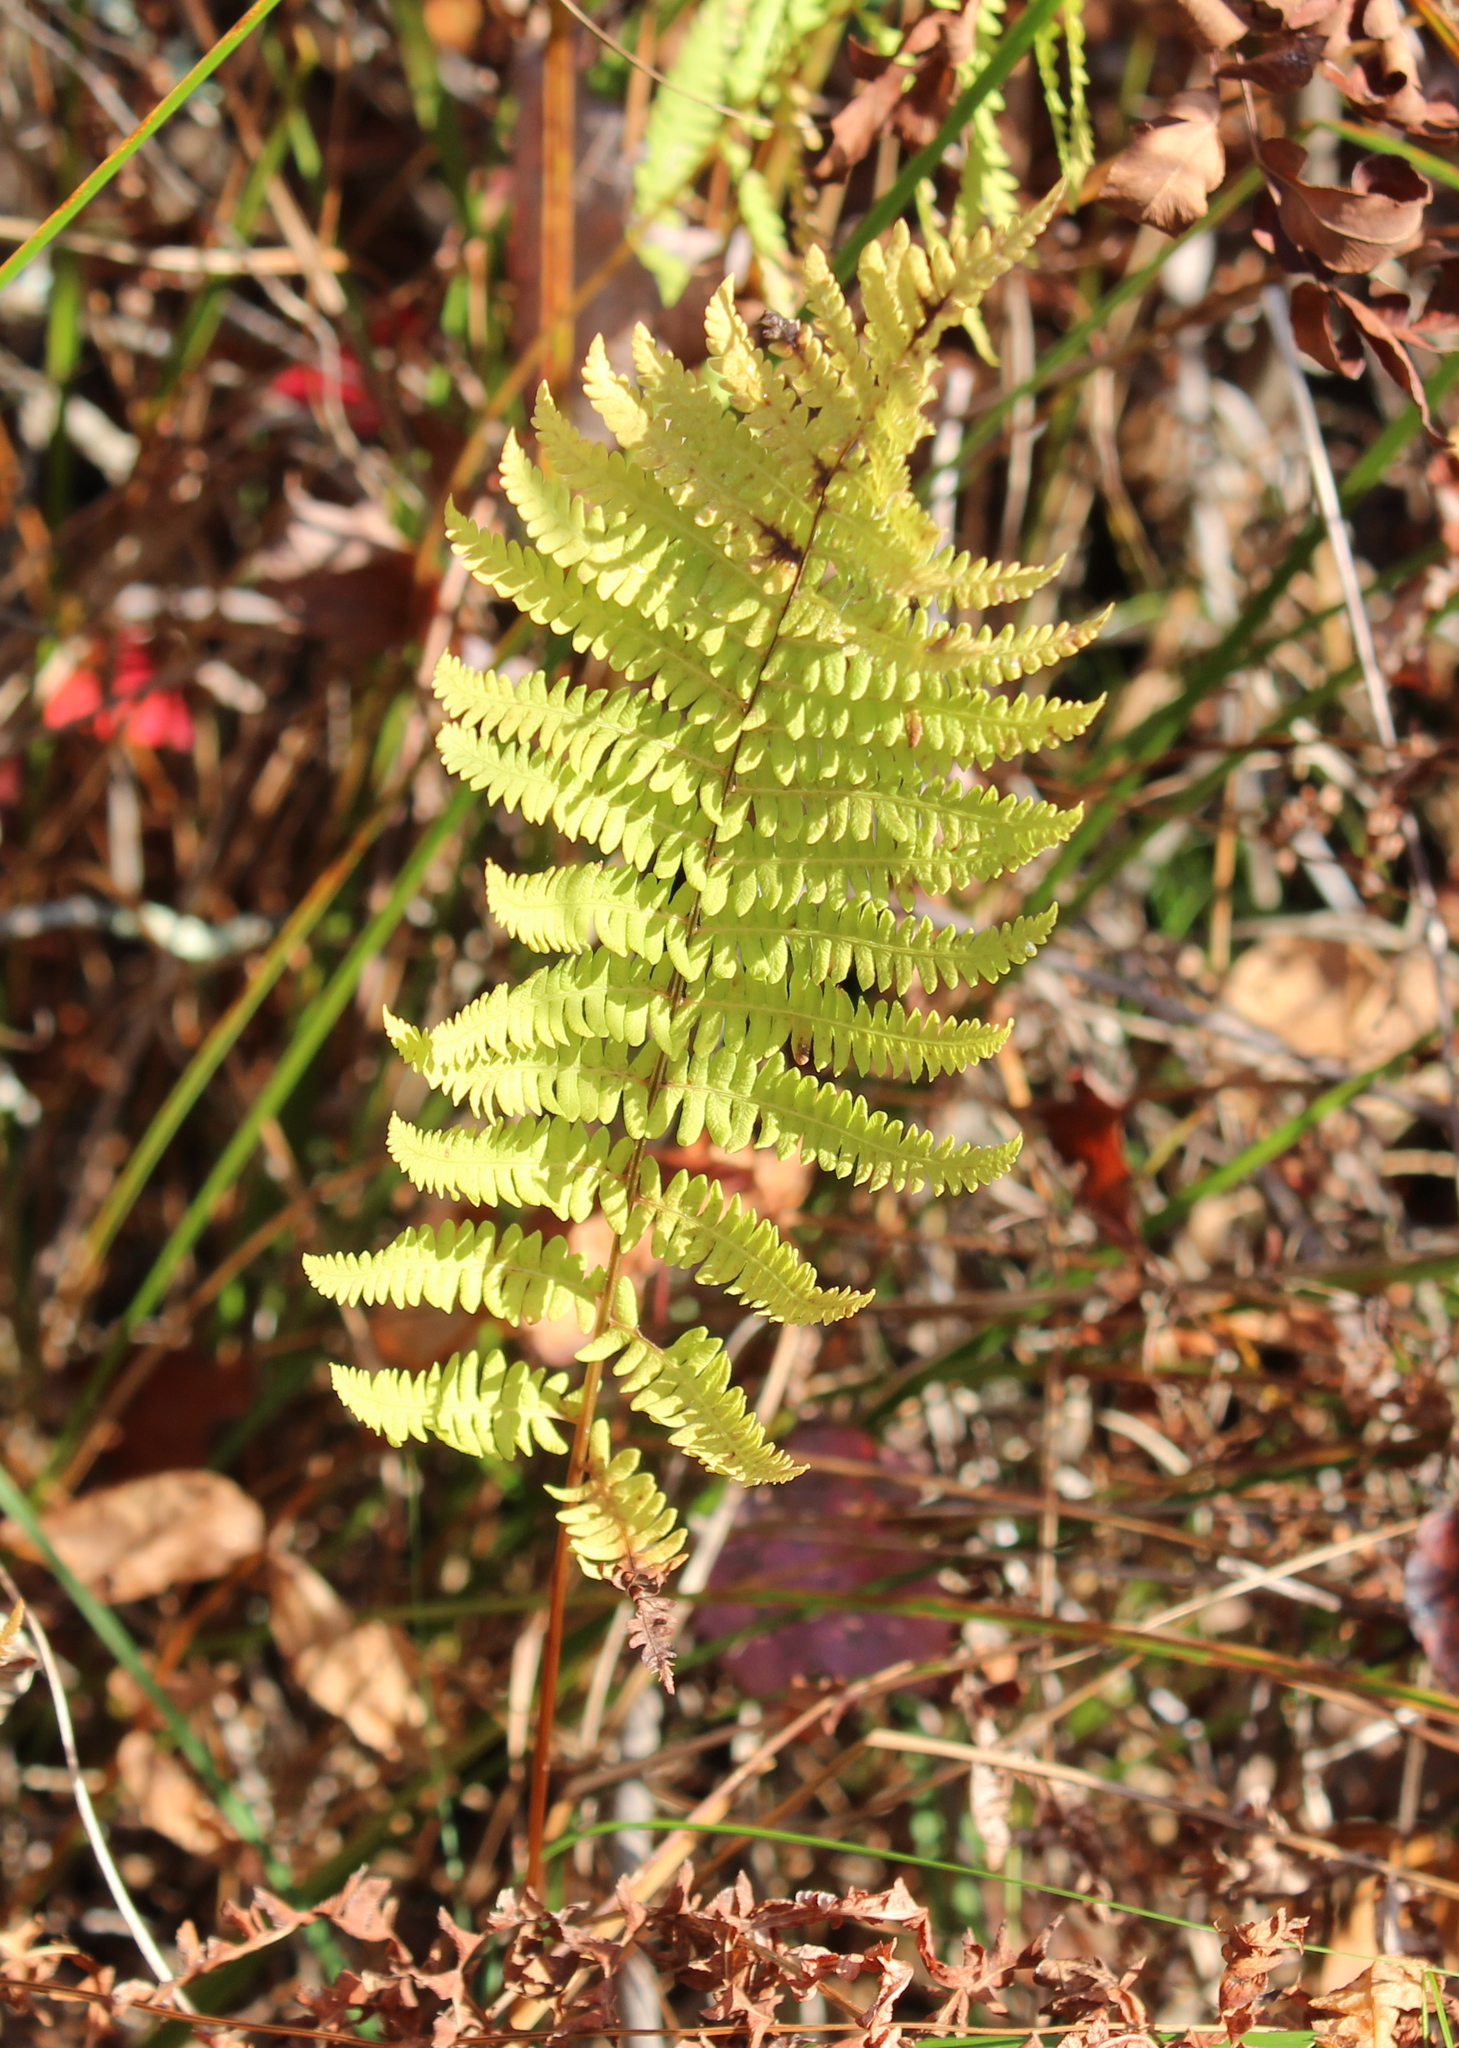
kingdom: Plantae
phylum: Tracheophyta
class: Polypodiopsida
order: Polypodiales
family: Thelypteridaceae
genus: Thelypteris
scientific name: Thelypteris palustris
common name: Marsh fern
